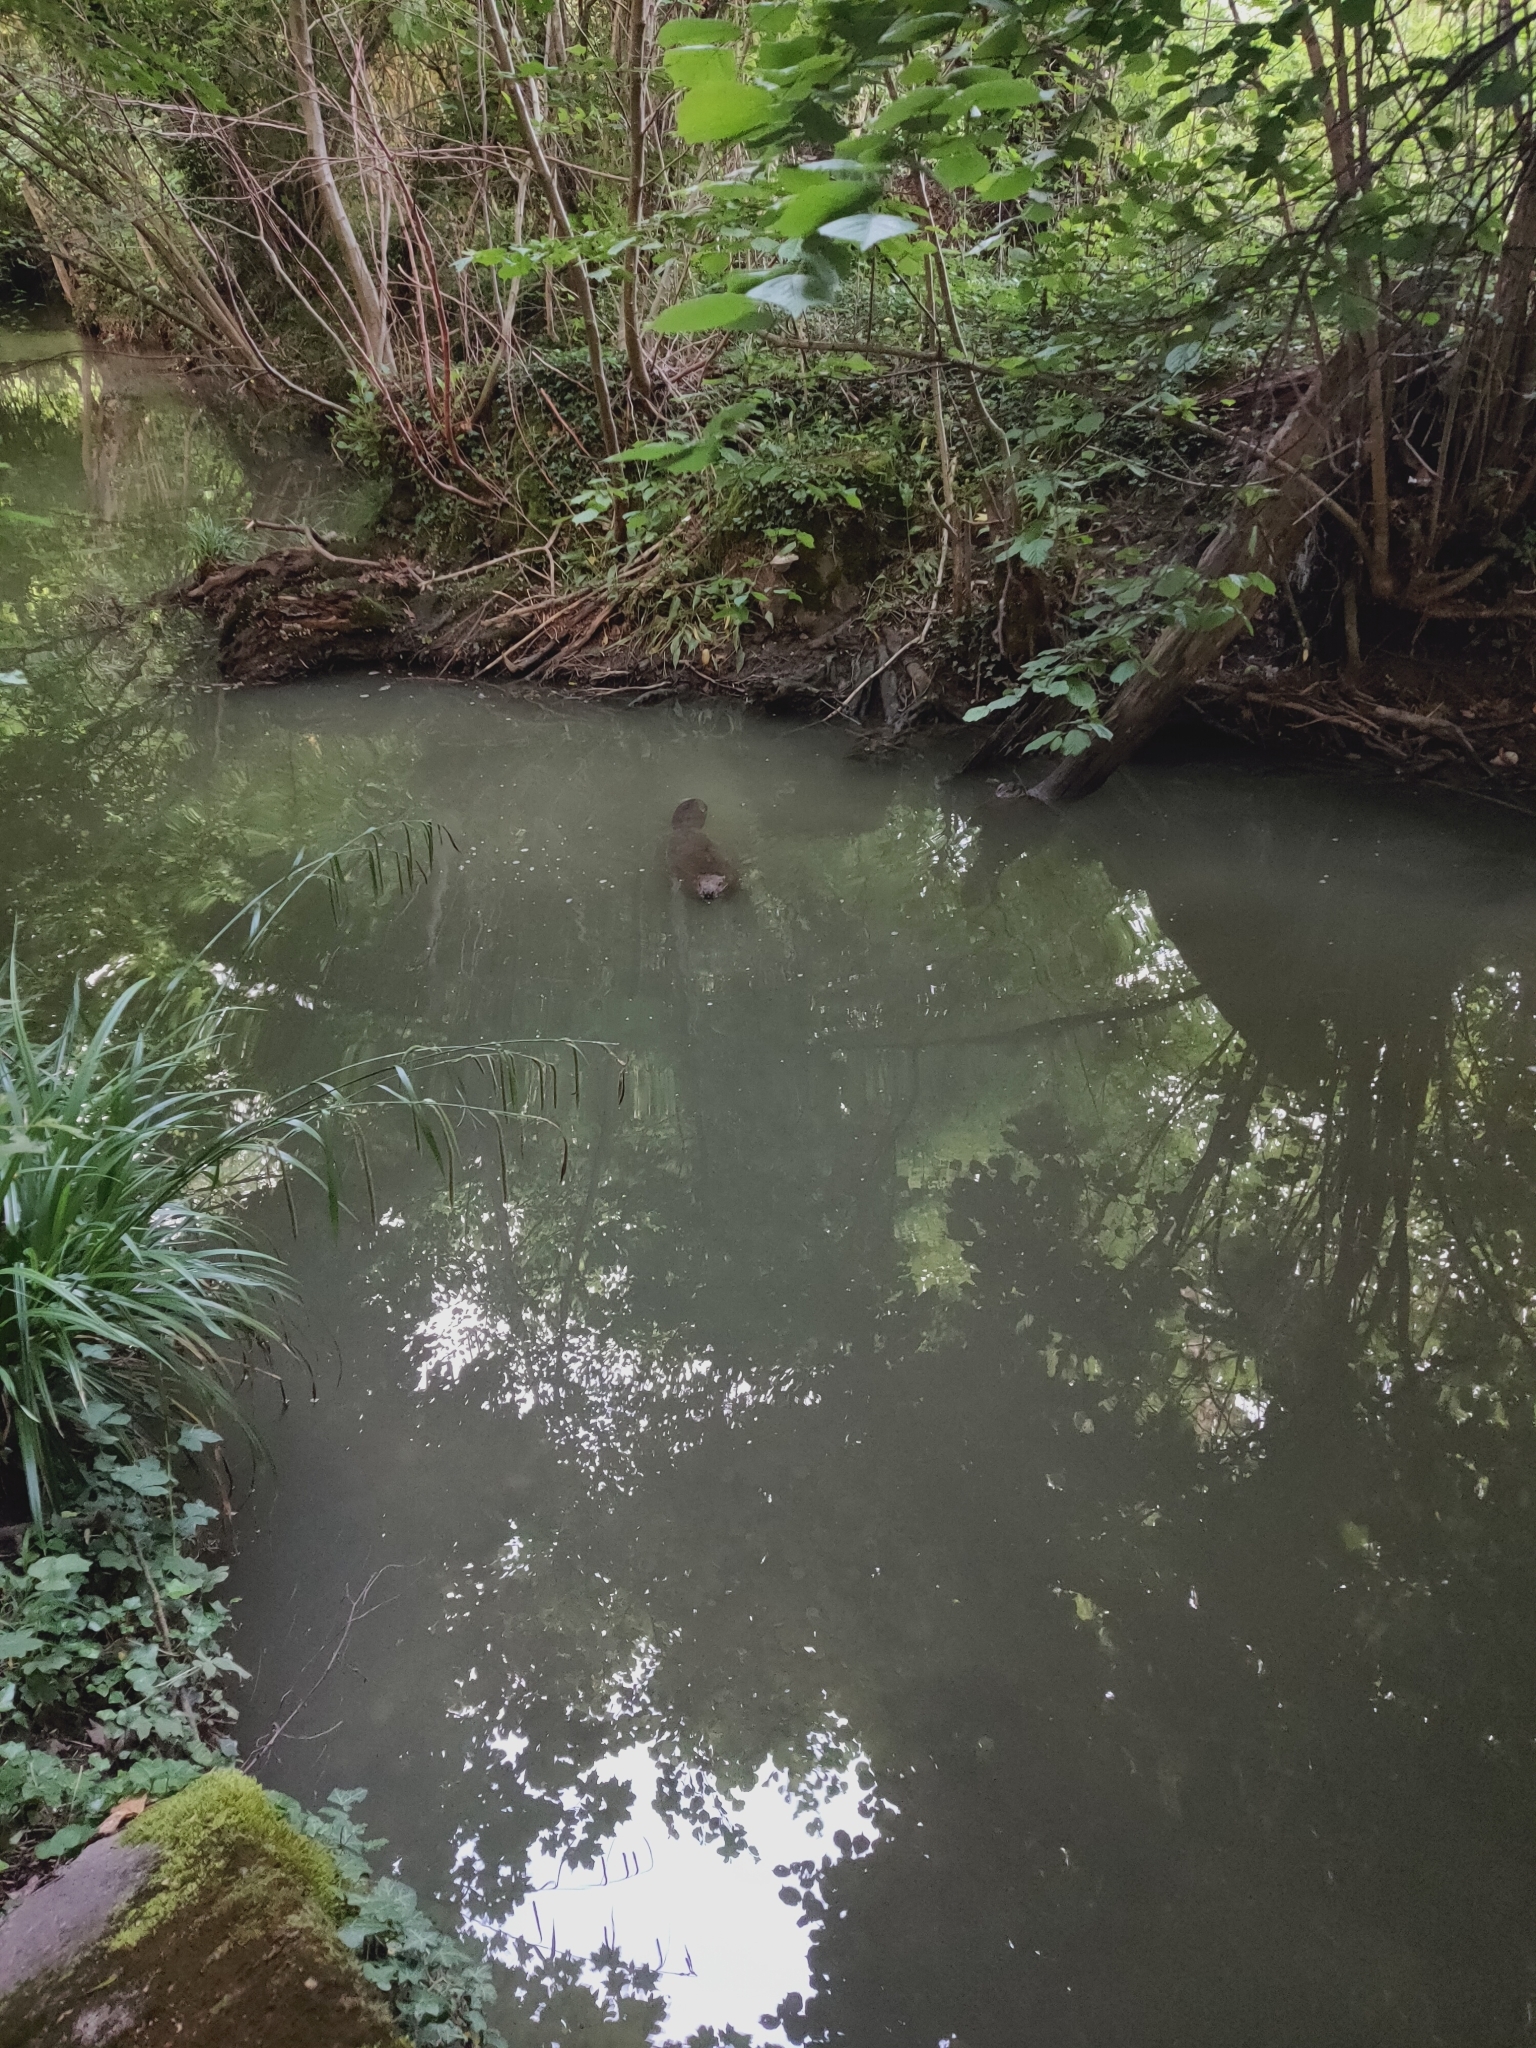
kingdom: Animalia
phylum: Chordata
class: Mammalia
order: Rodentia
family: Castoridae
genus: Castor
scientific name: Castor fiber
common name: Eurasian beaver
